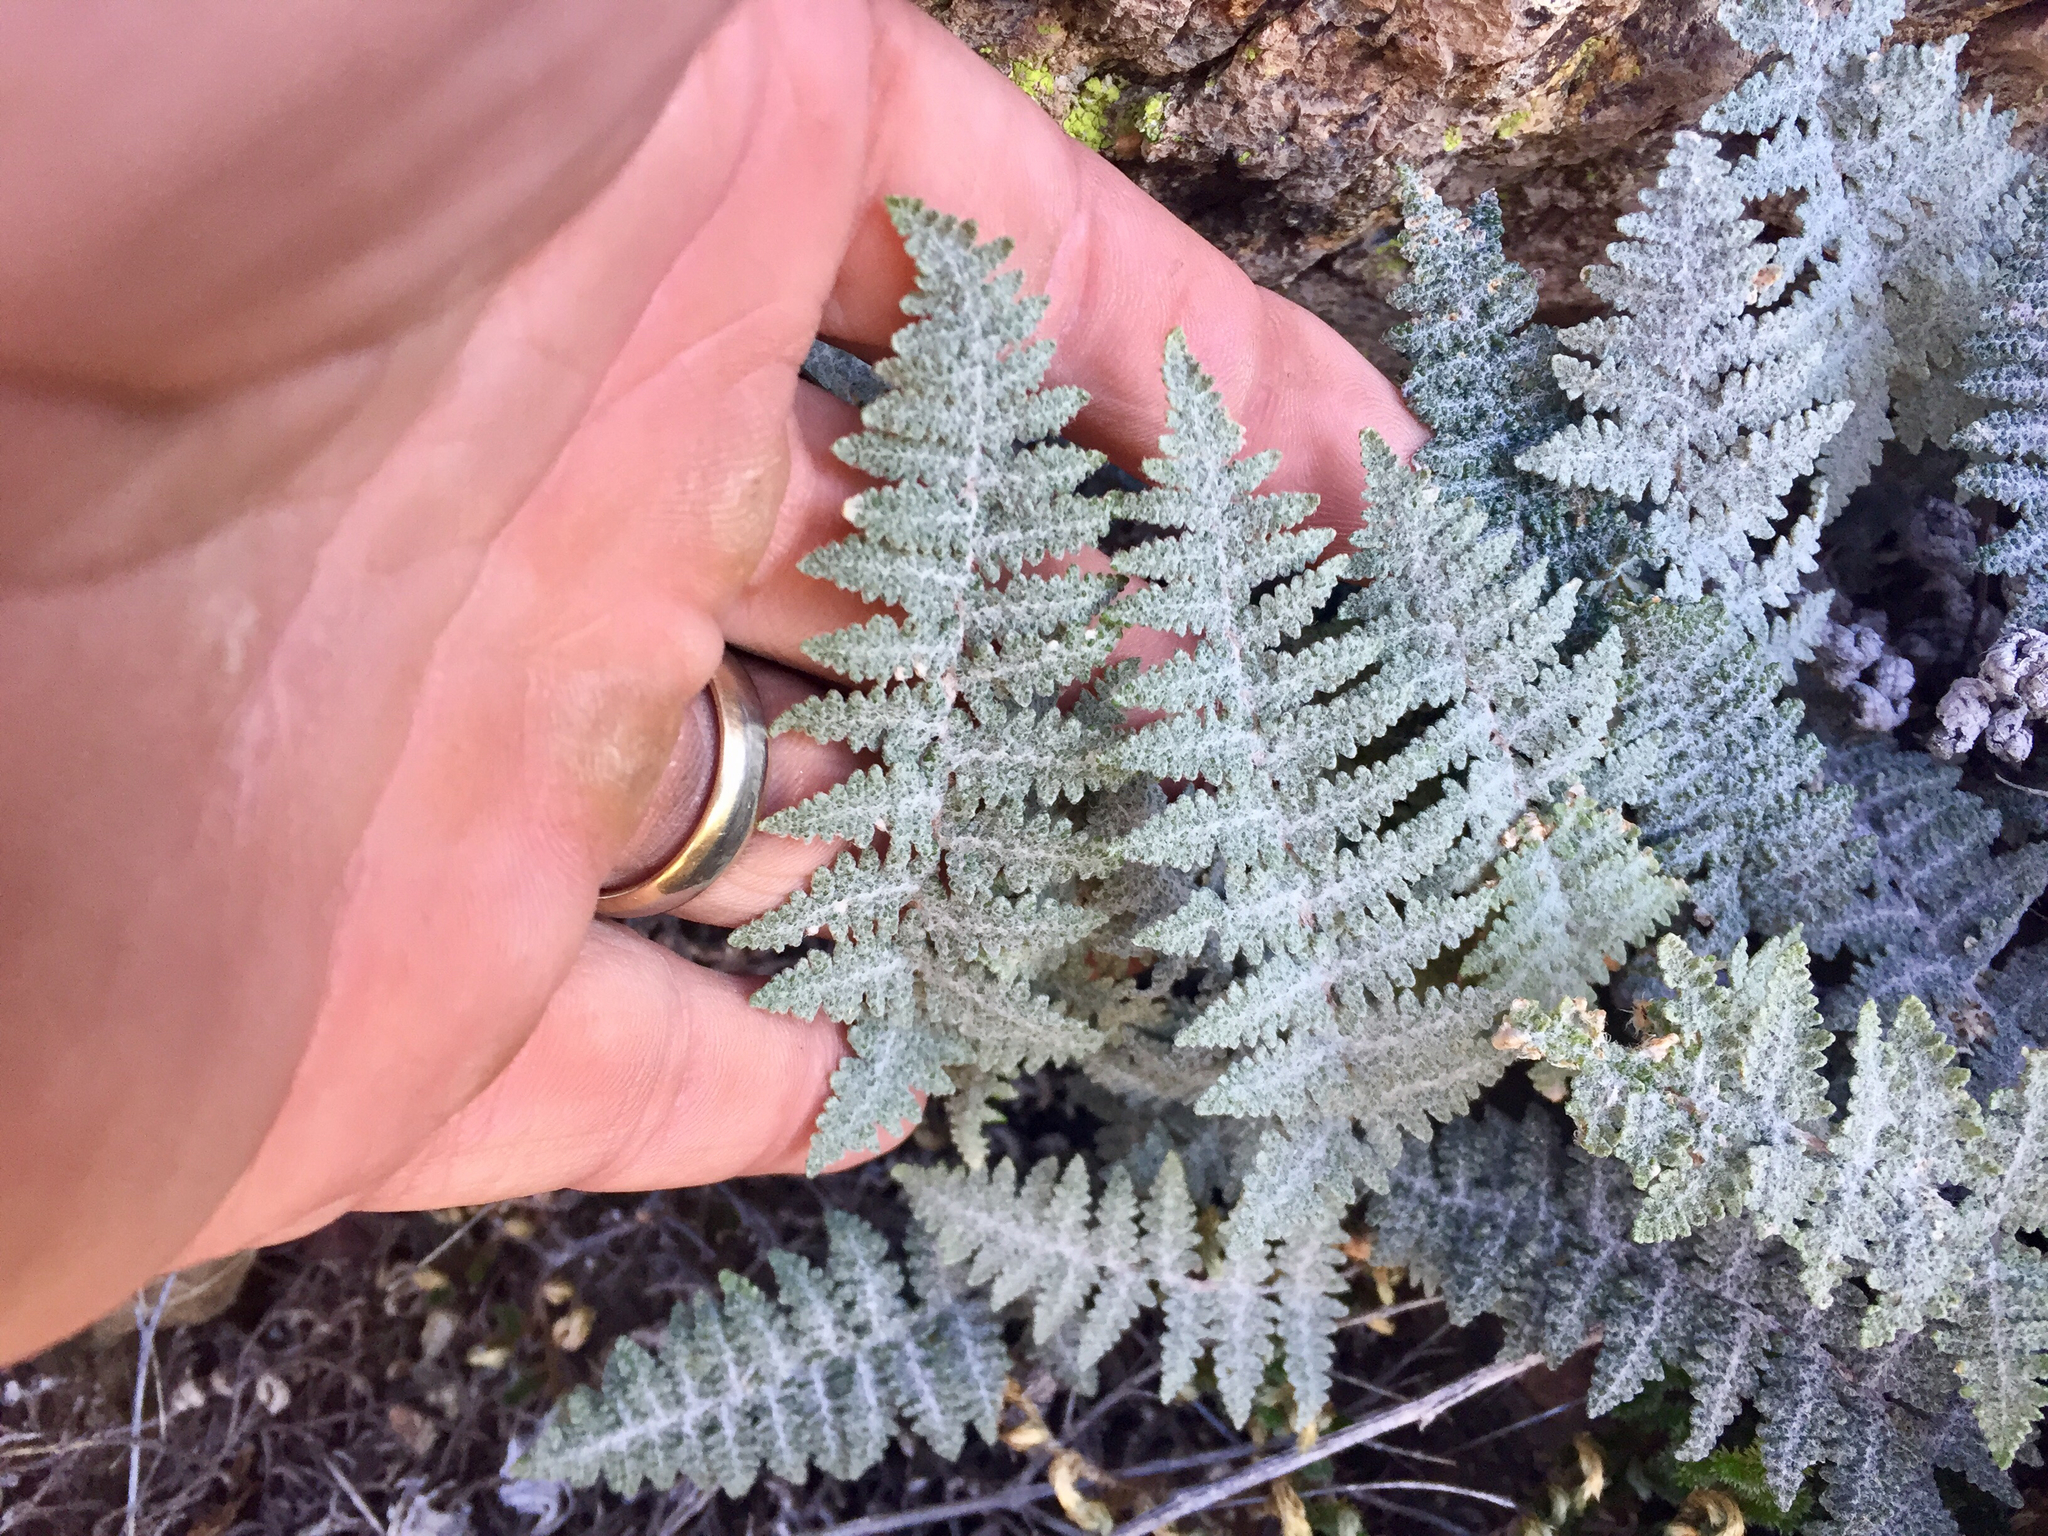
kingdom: Plantae
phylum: Tracheophyta
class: Polypodiopsida
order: Polypodiales
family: Pteridaceae
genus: Myriopteris
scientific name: Myriopteris lindheimeri
